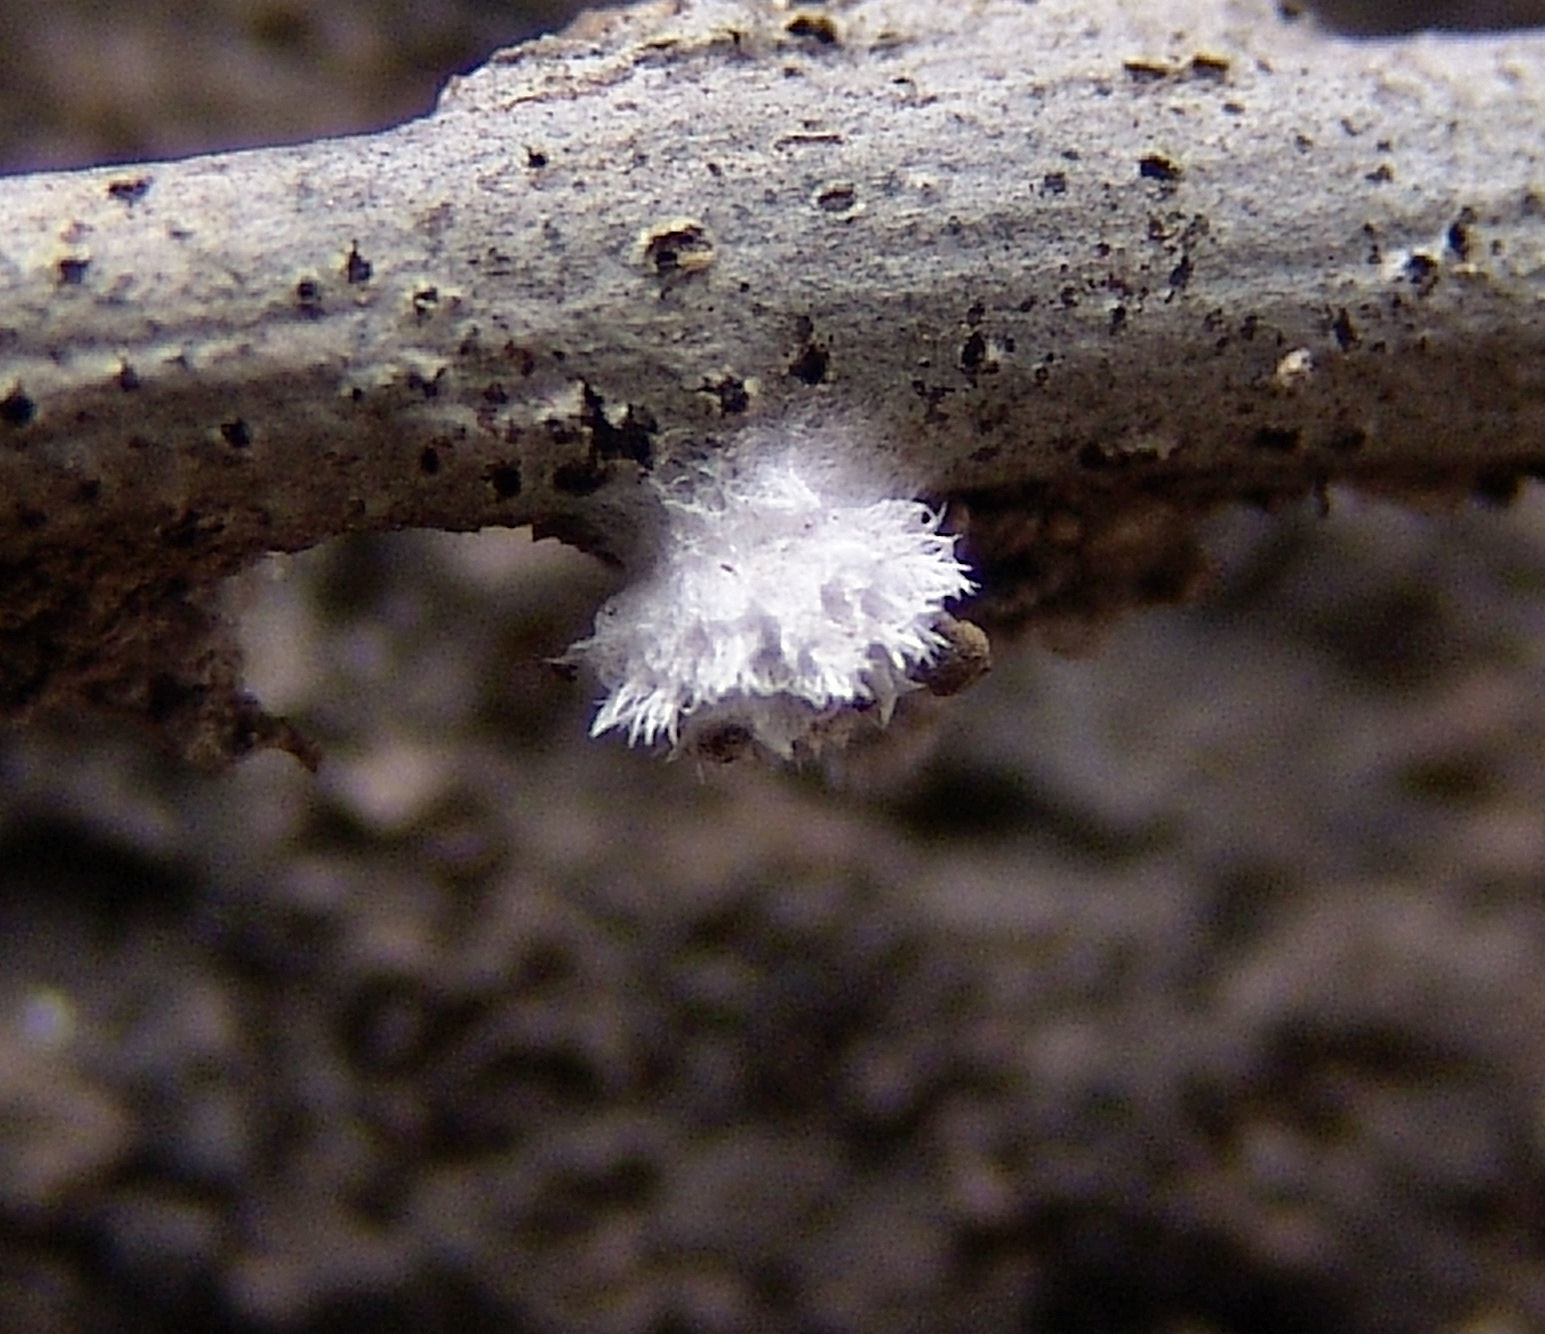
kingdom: Fungi
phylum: Basidiomycota
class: Agaricomycetes
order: Agaricales
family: Schizophyllaceae
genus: Schizophyllum
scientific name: Schizophyllum commune
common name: Common porecrust
